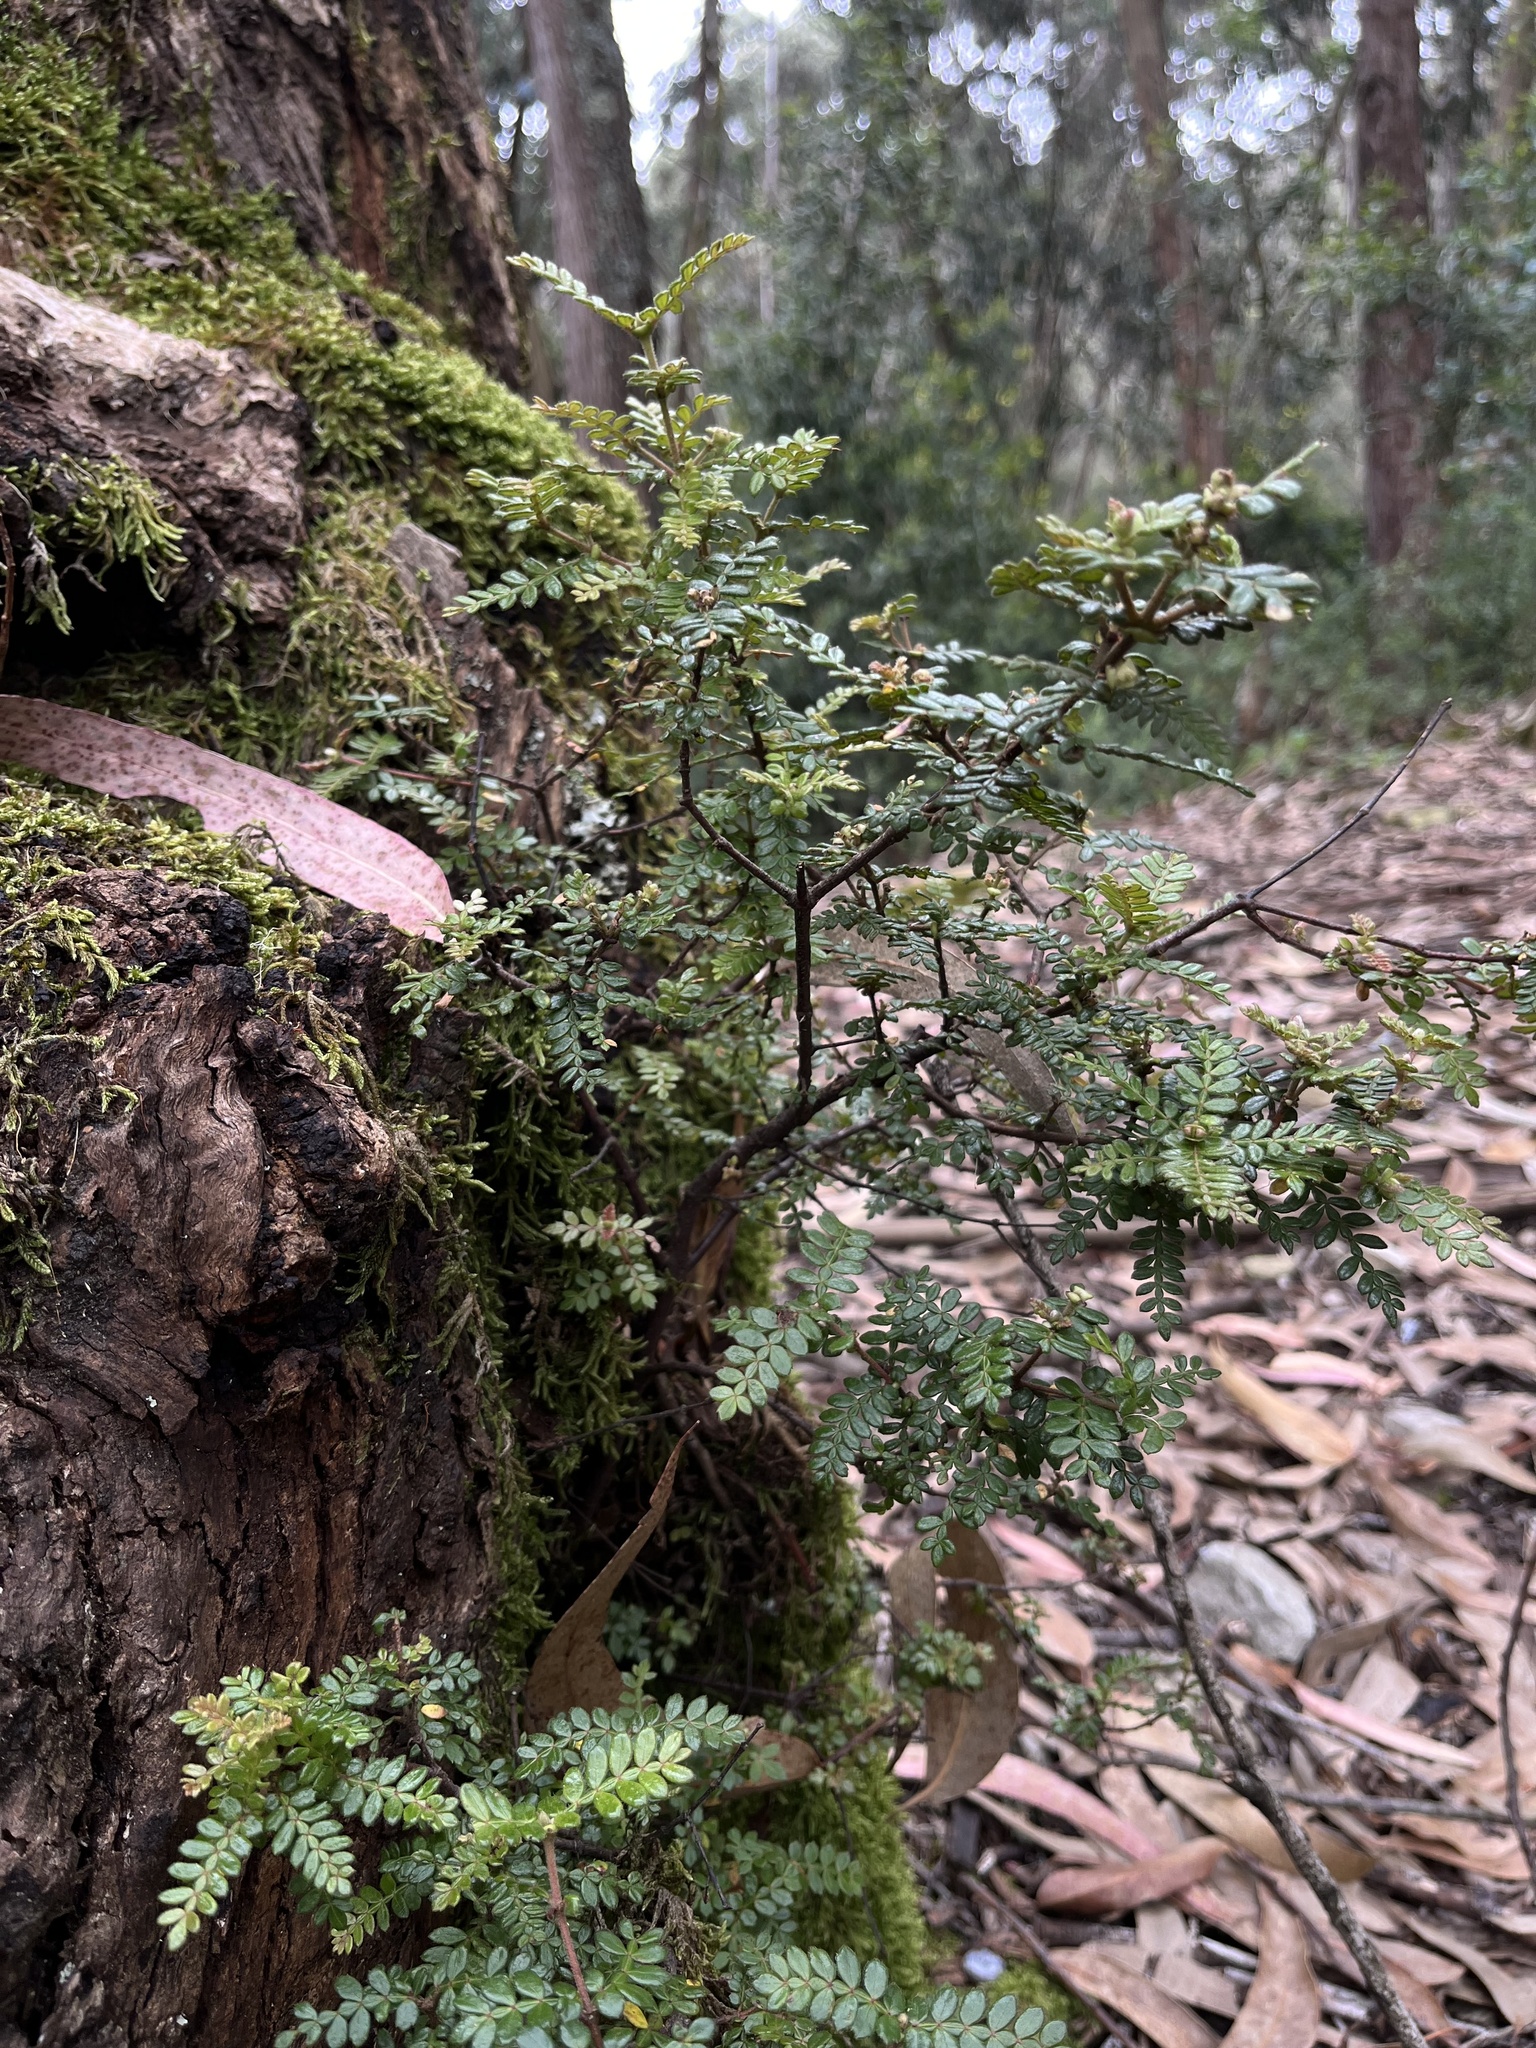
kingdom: Plantae
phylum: Tracheophyta
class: Magnoliopsida
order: Oxalidales
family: Cunoniaceae
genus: Weinmannia
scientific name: Weinmannia tomentosa
